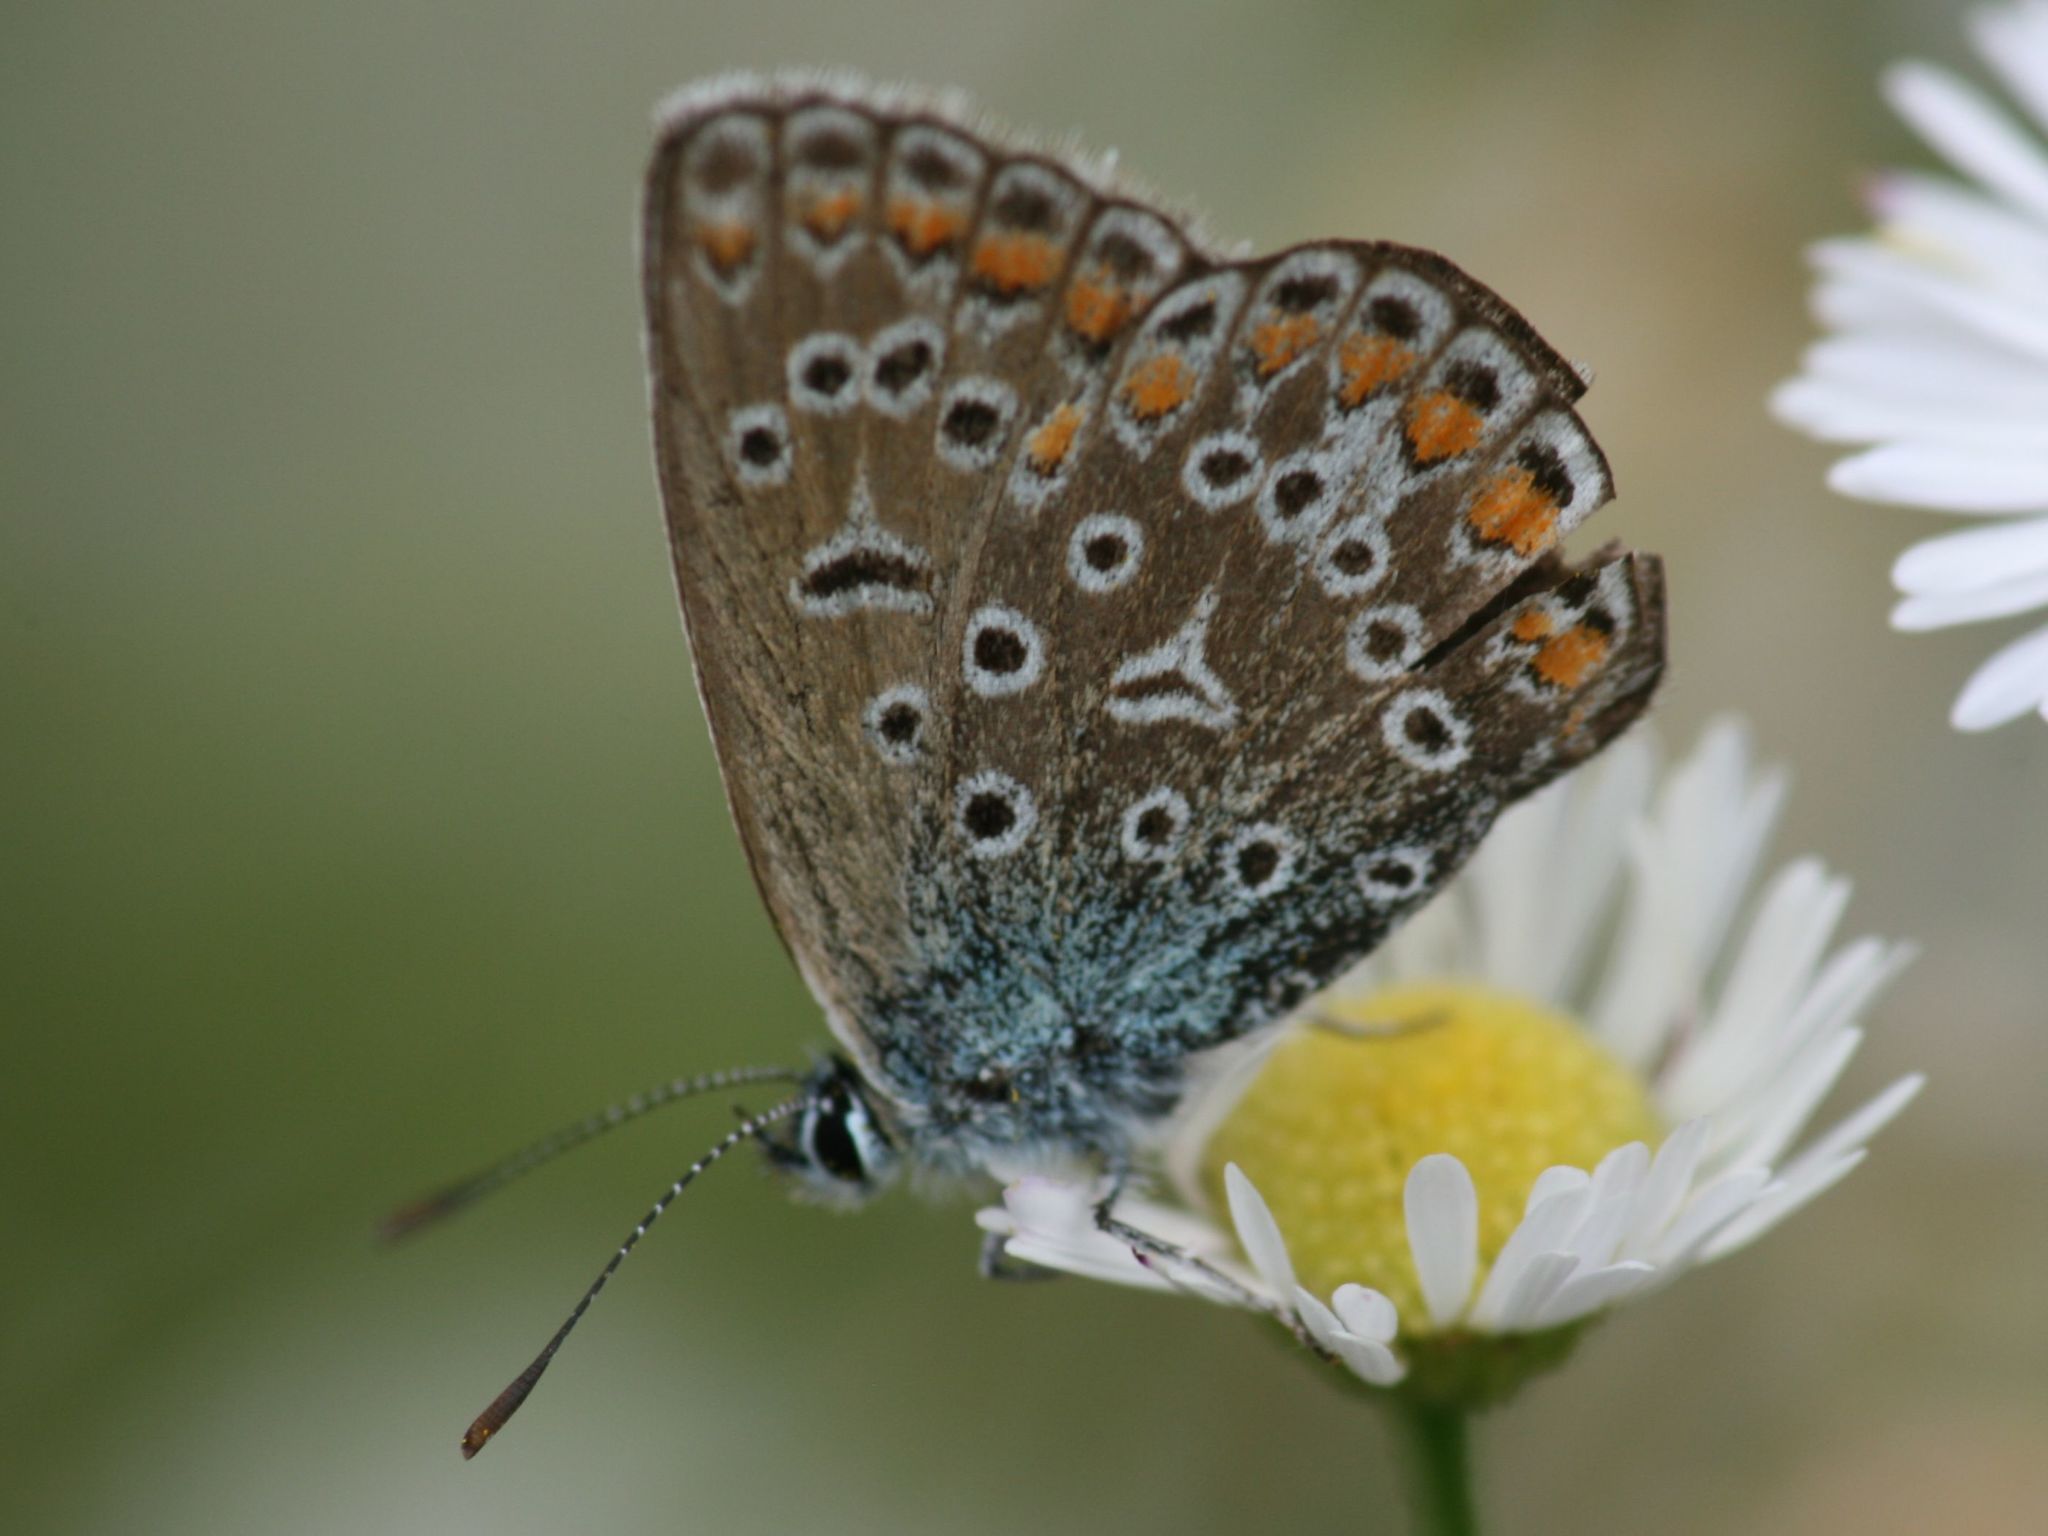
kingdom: Animalia
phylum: Arthropoda
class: Insecta
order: Lepidoptera
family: Lycaenidae
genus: Polyommatus
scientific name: Polyommatus icarus
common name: Common blue
